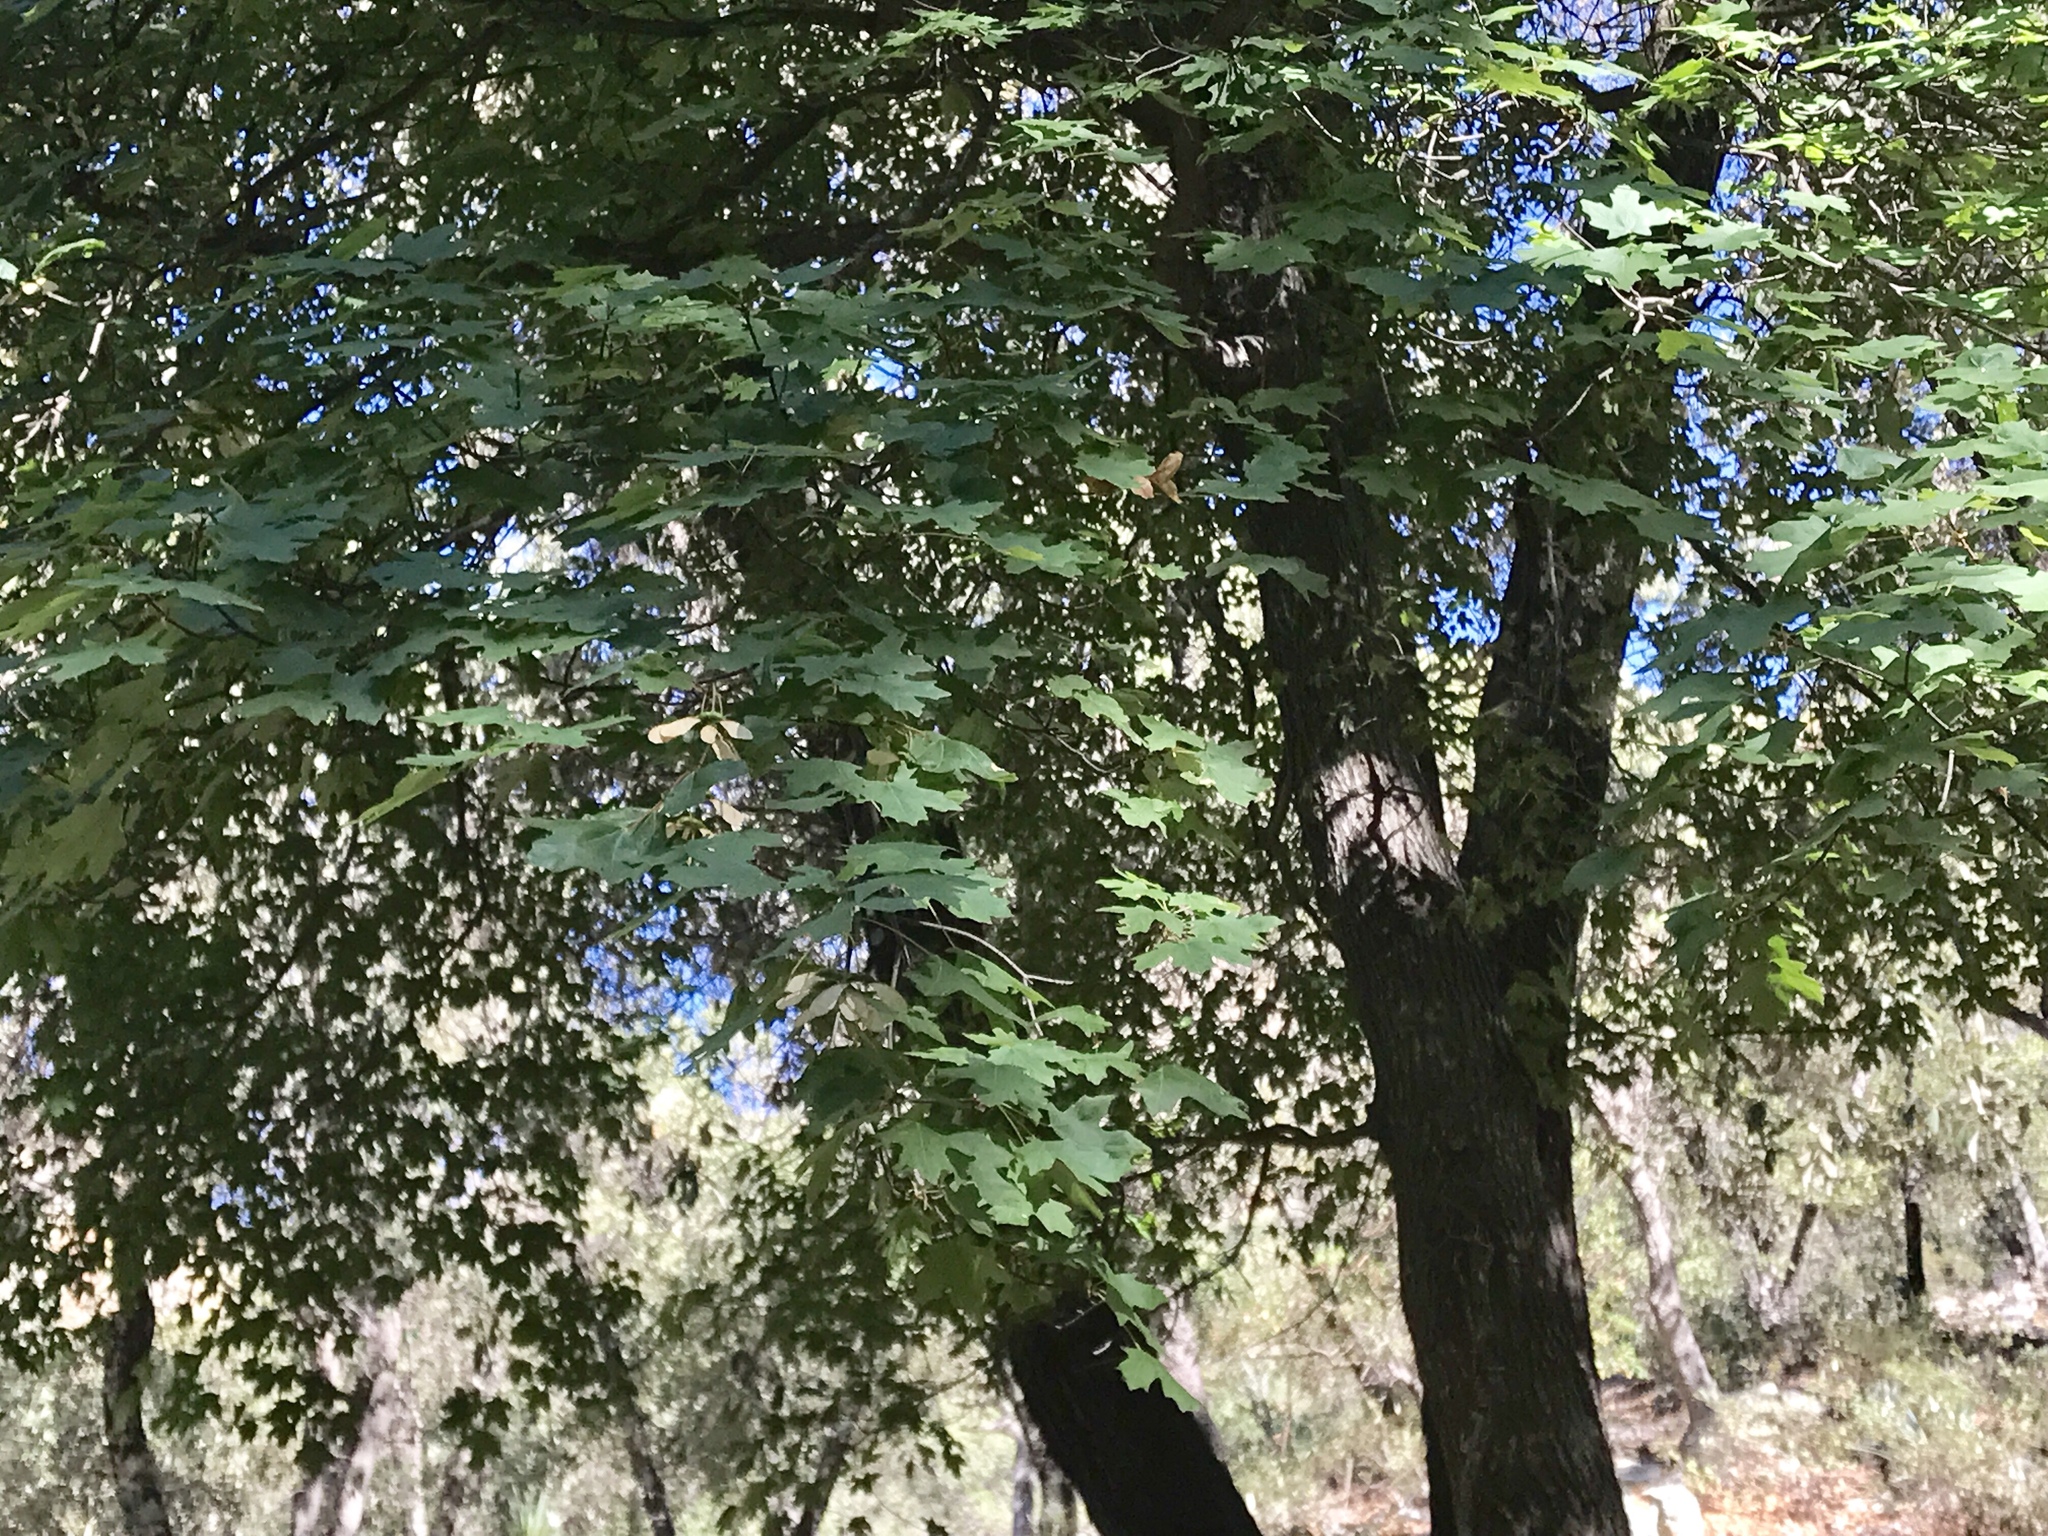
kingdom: Plantae
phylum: Tracheophyta
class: Magnoliopsida
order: Sapindales
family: Sapindaceae
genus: Acer
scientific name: Acer grandidentatum
